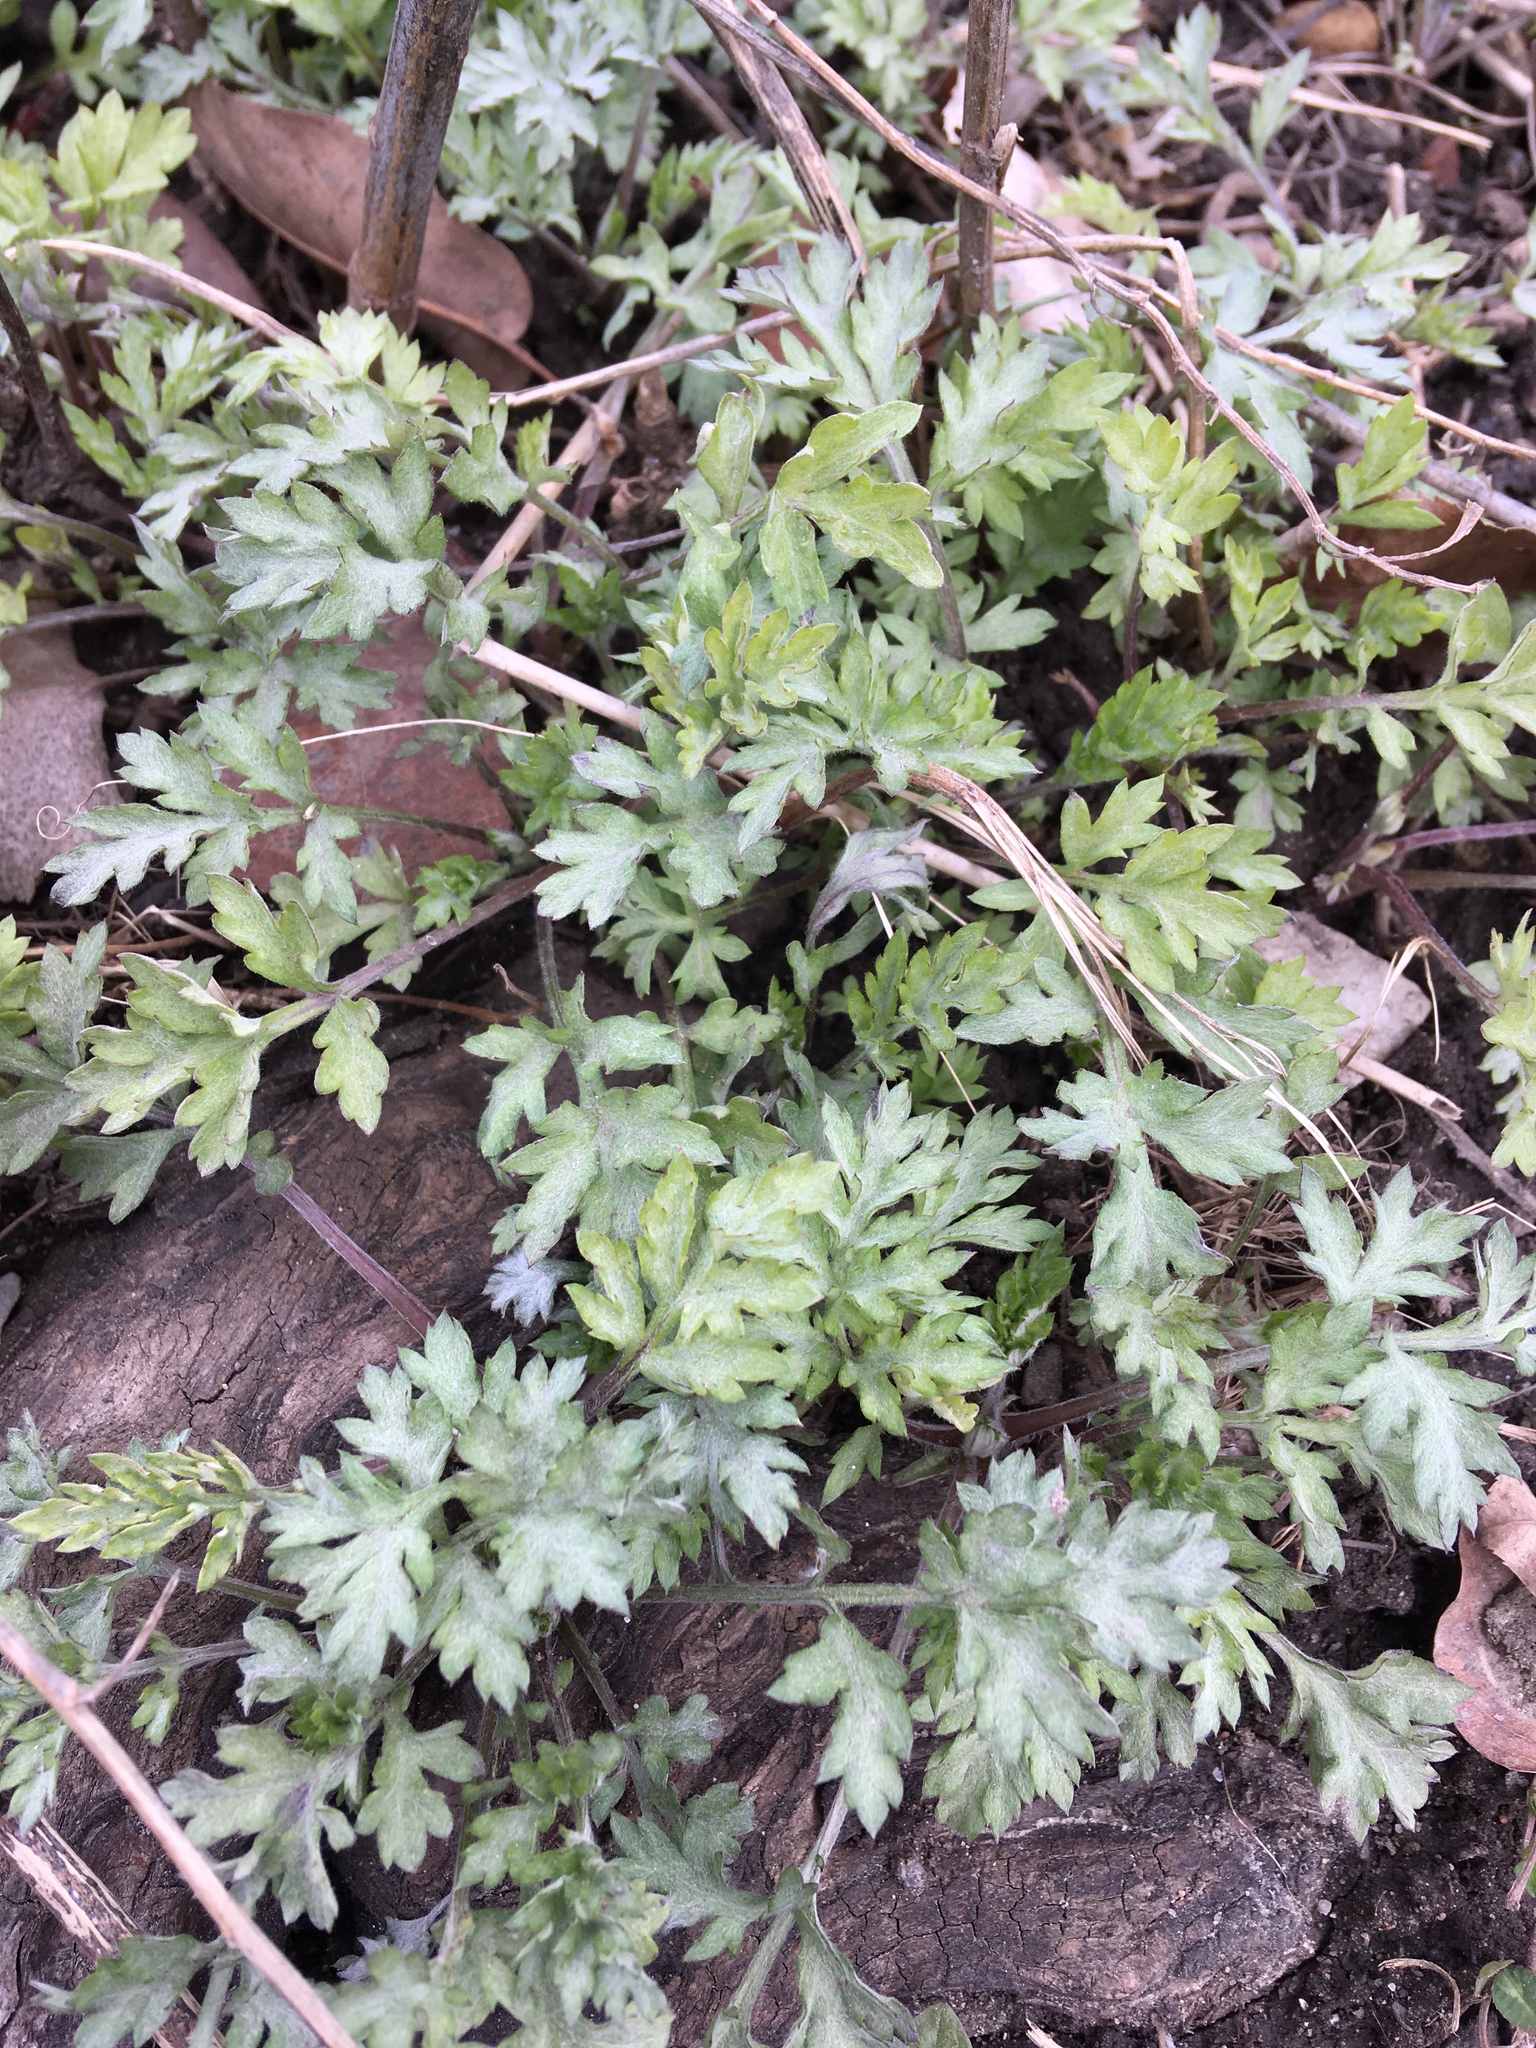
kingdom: Plantae
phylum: Tracheophyta
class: Magnoliopsida
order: Asterales
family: Asteraceae
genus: Artemisia
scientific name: Artemisia vulgaris
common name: Mugwort
